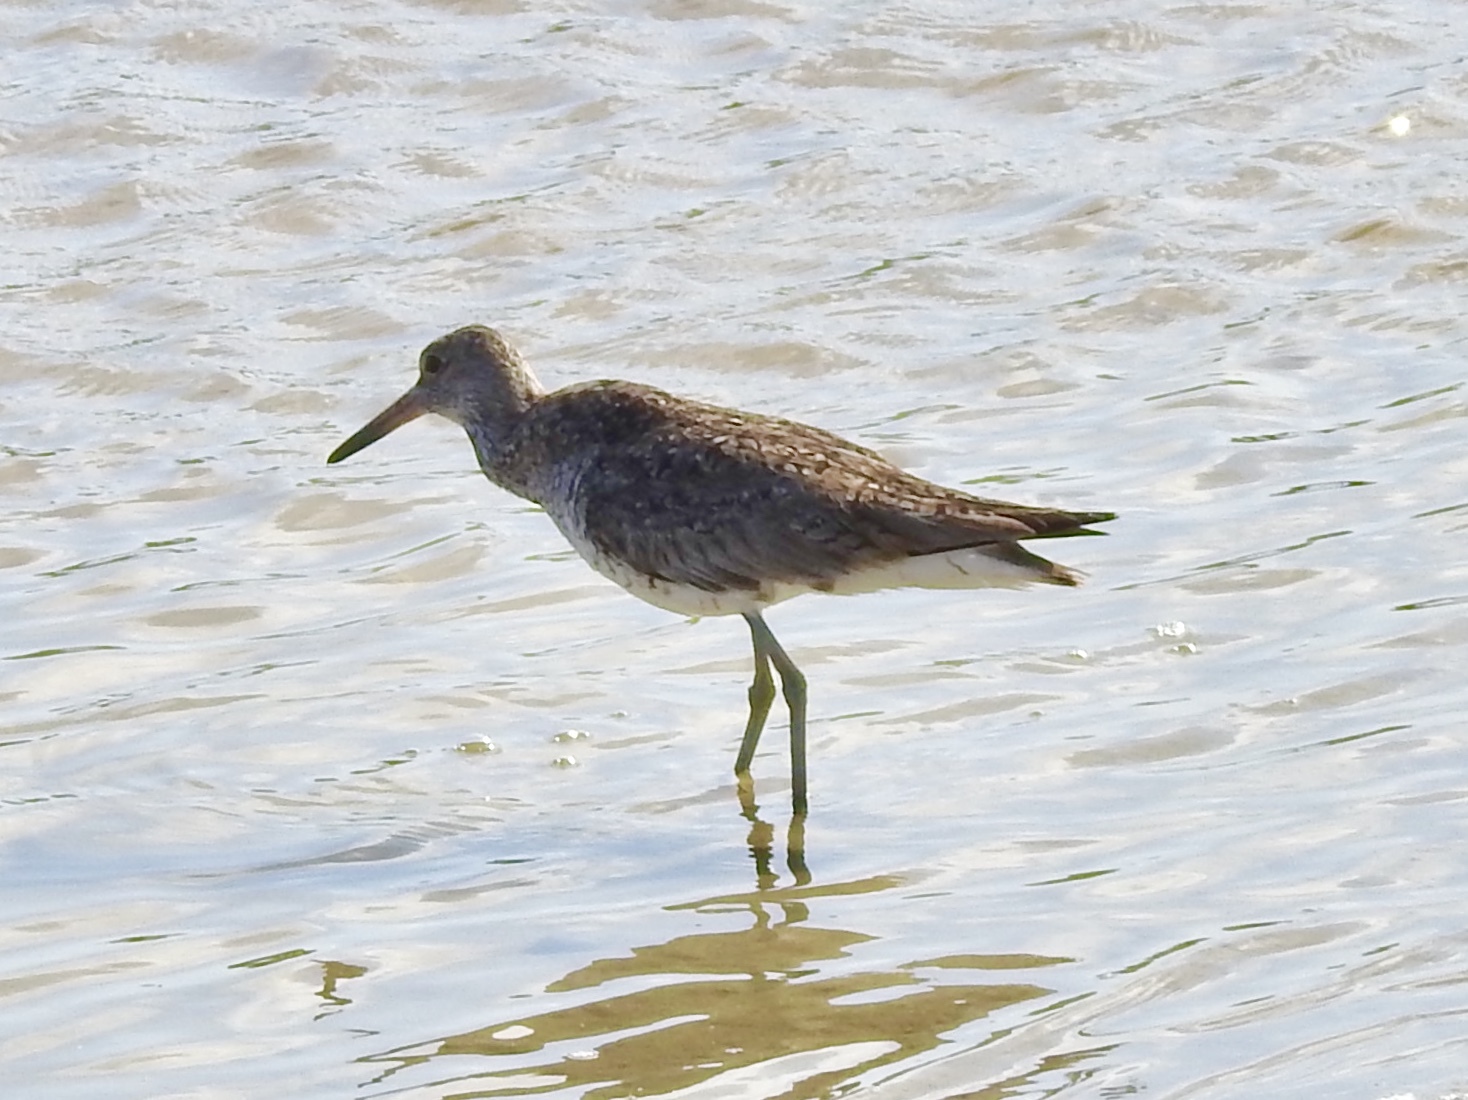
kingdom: Animalia
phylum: Chordata
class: Aves
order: Charadriiformes
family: Scolopacidae
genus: Tringa
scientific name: Tringa semipalmata
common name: Willet
